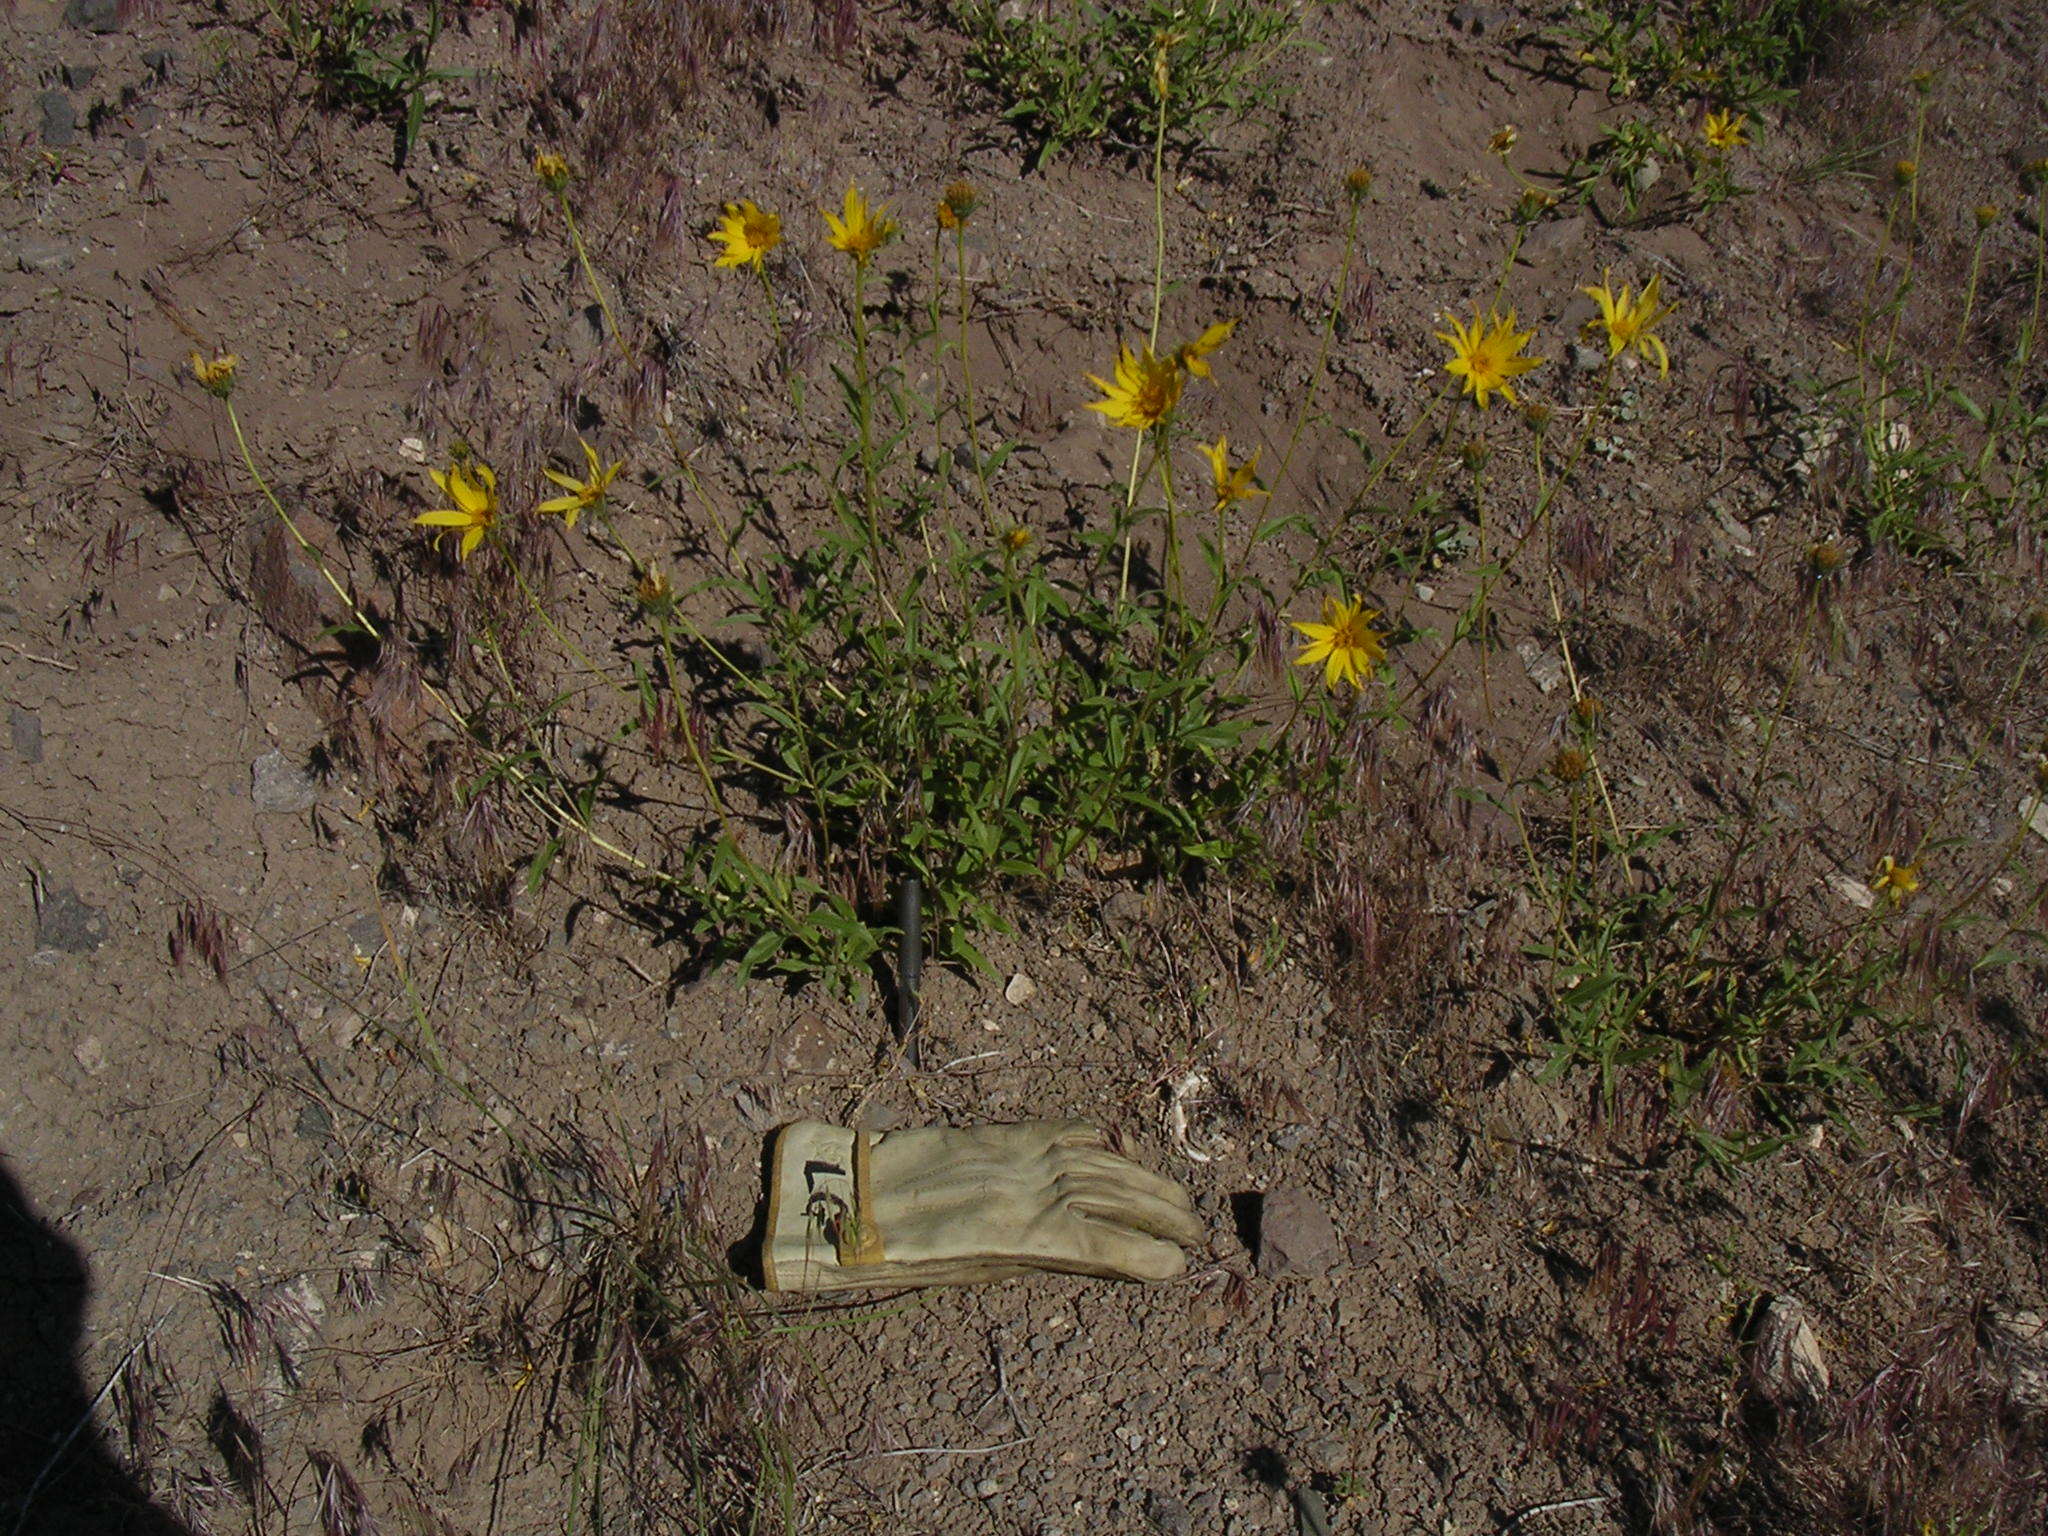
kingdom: Plantae
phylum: Tracheophyta
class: Magnoliopsida
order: Asterales
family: Asteraceae
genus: Helianthus
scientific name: Helianthus cusickii
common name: Cusick's sunflower
